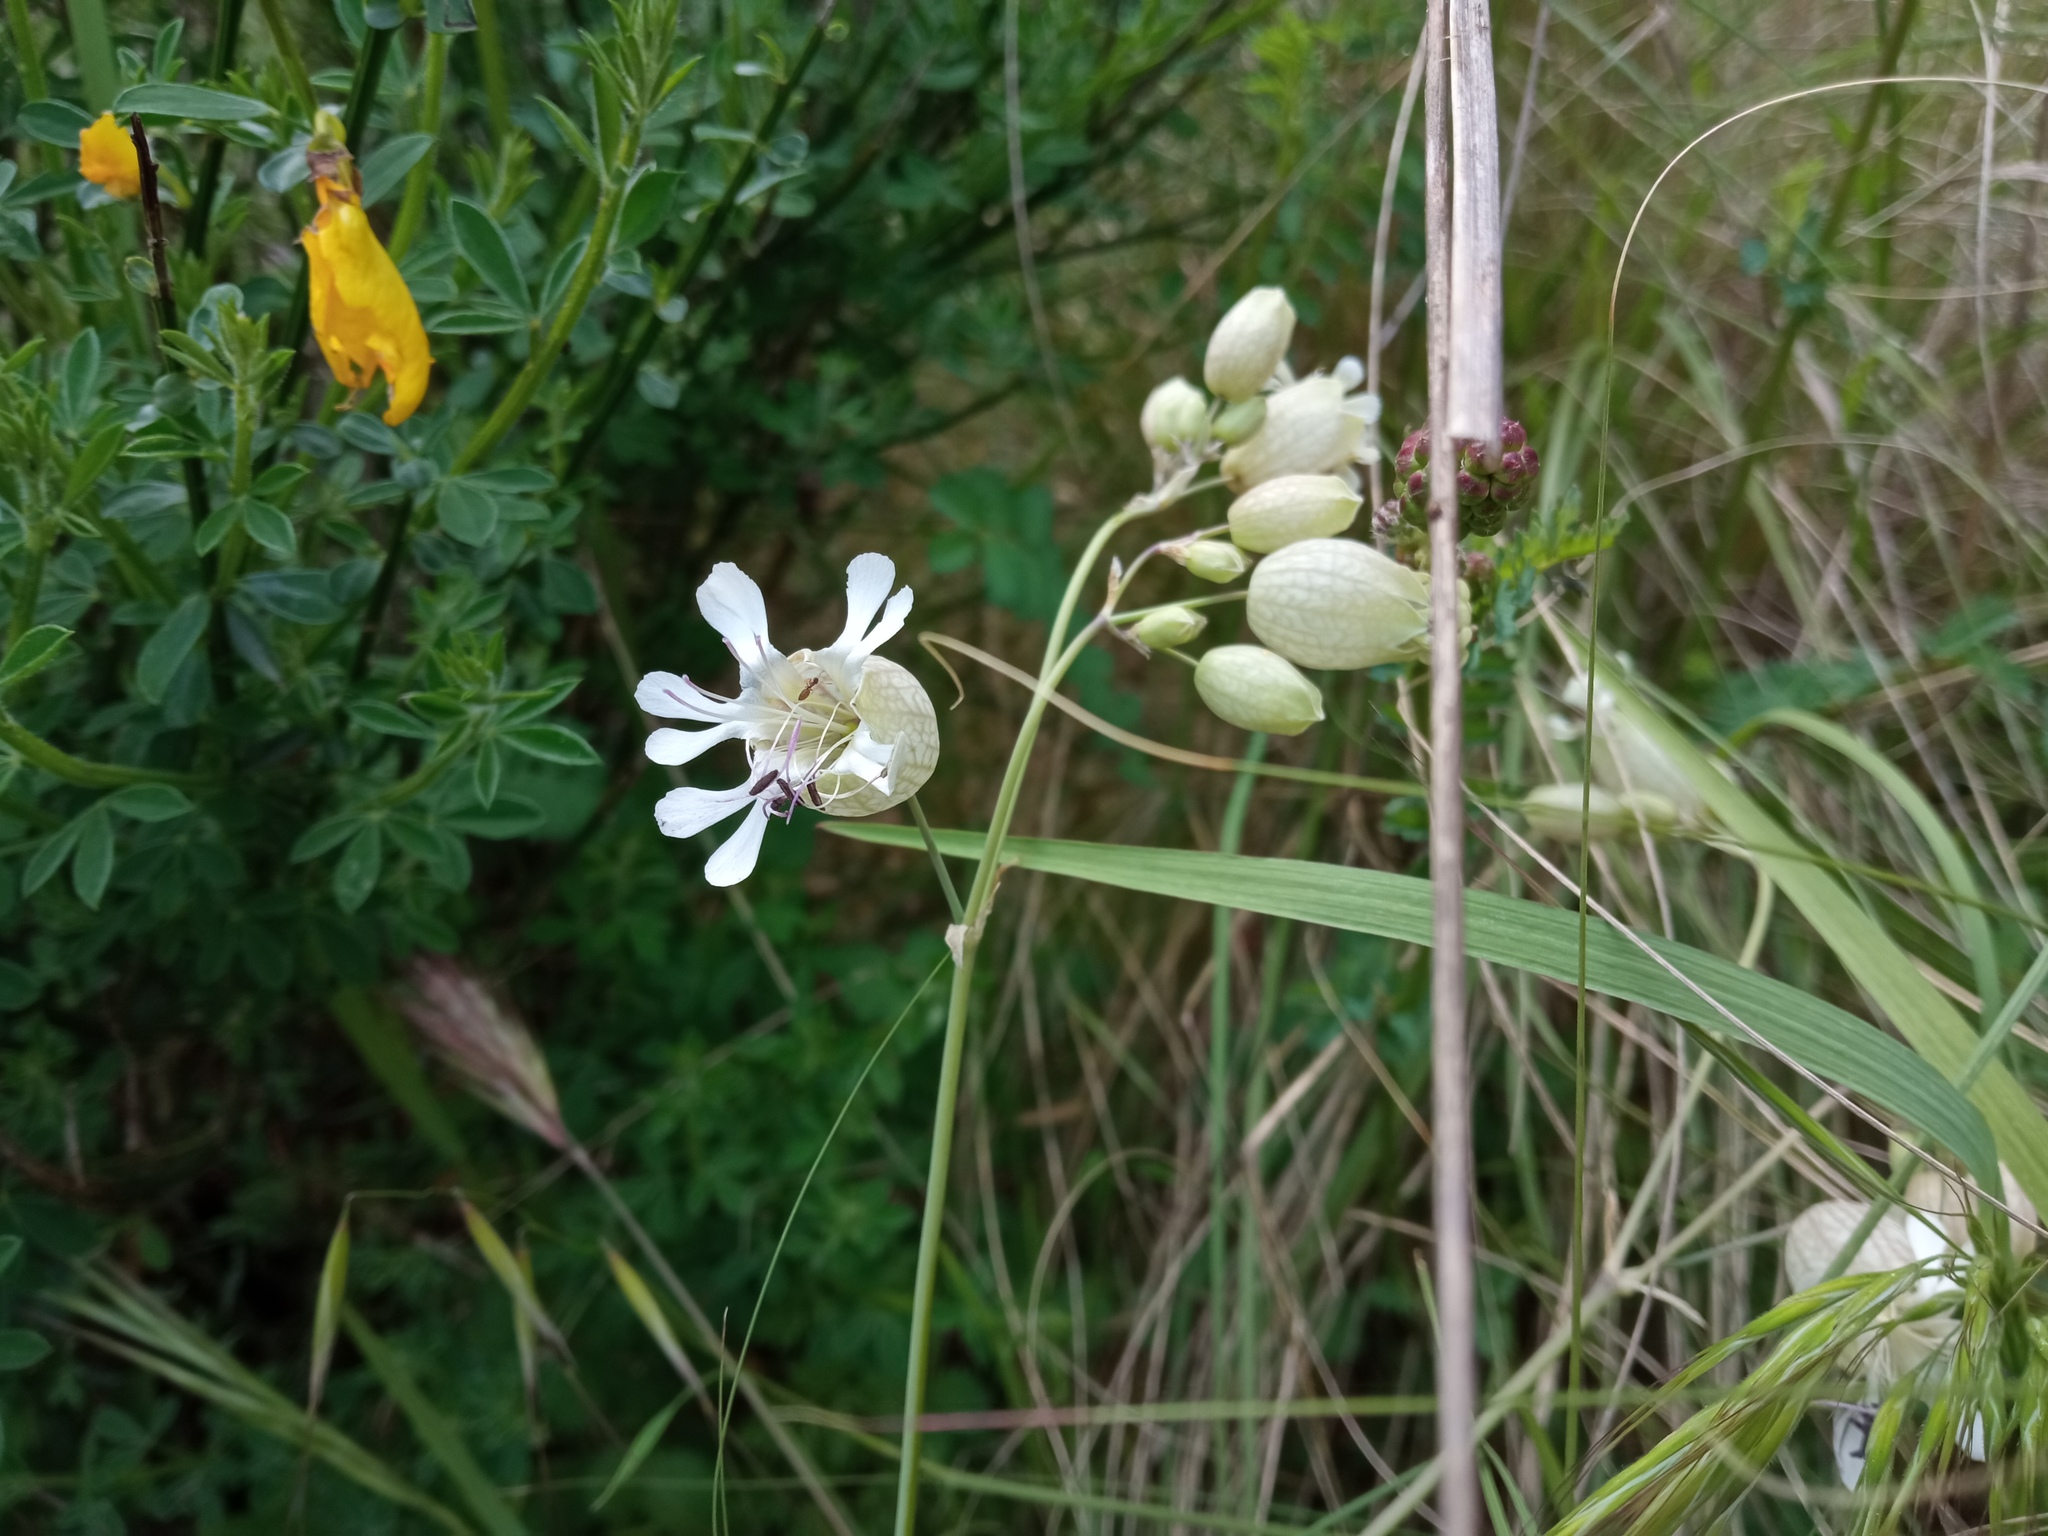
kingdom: Plantae
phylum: Tracheophyta
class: Magnoliopsida
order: Caryophyllales
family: Caryophyllaceae
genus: Silene
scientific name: Silene vulgaris
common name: Bladder campion
